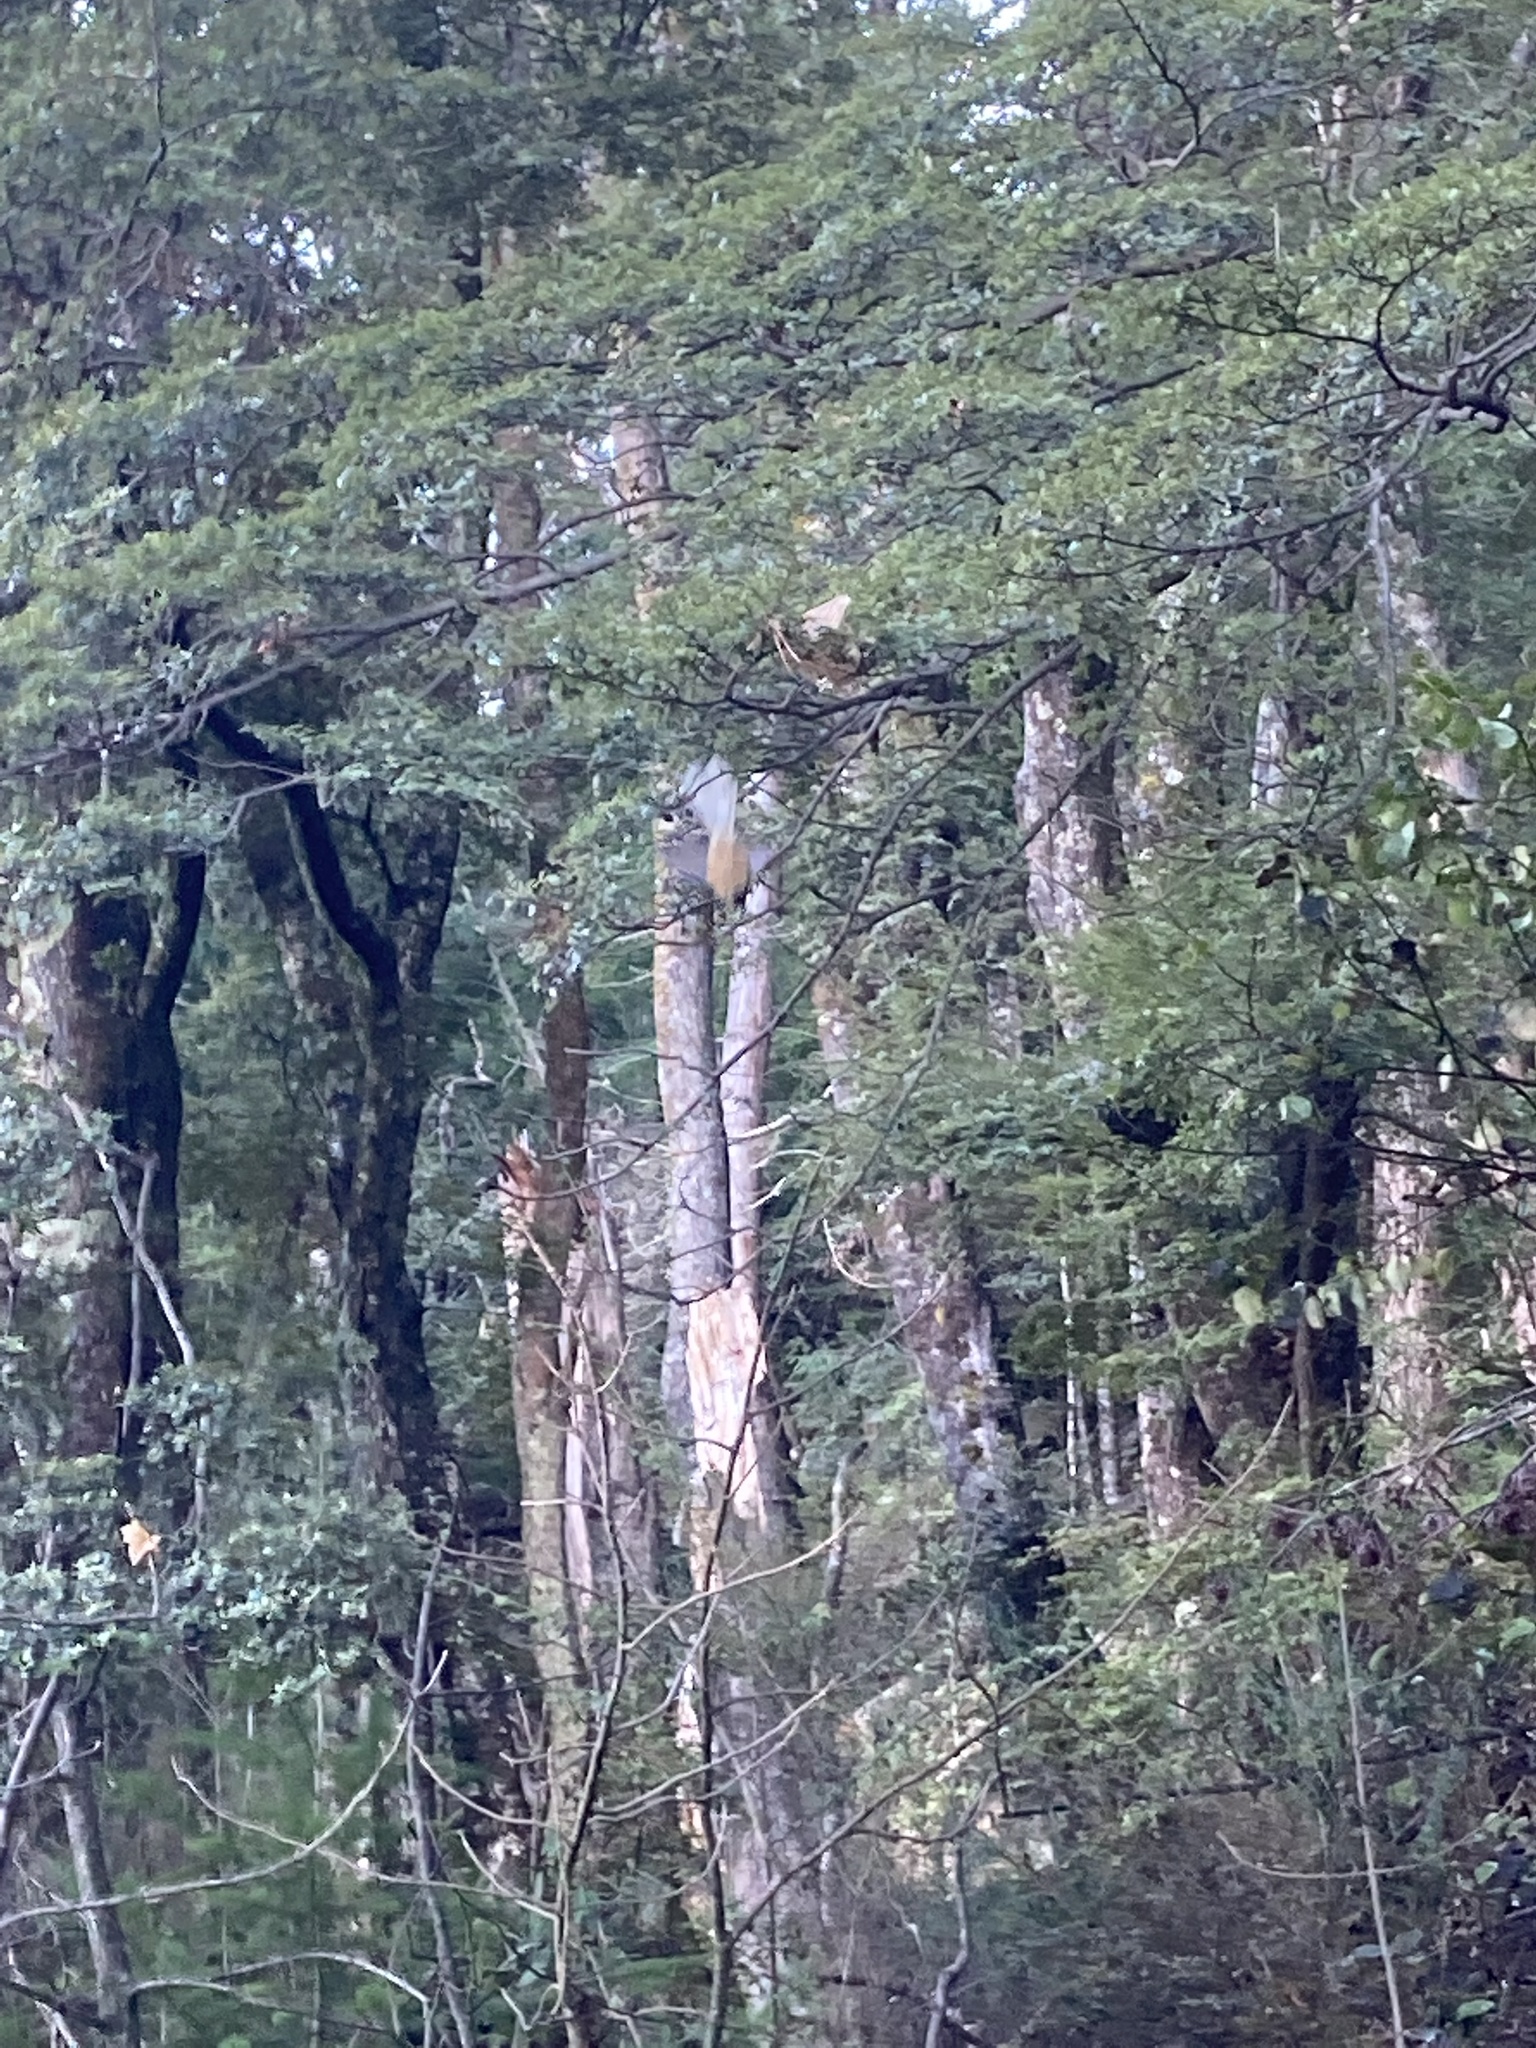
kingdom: Animalia
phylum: Chordata
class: Aves
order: Passeriformes
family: Rhipiduridae
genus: Rhipidura
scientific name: Rhipidura fuliginosa
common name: New zealand fantail
